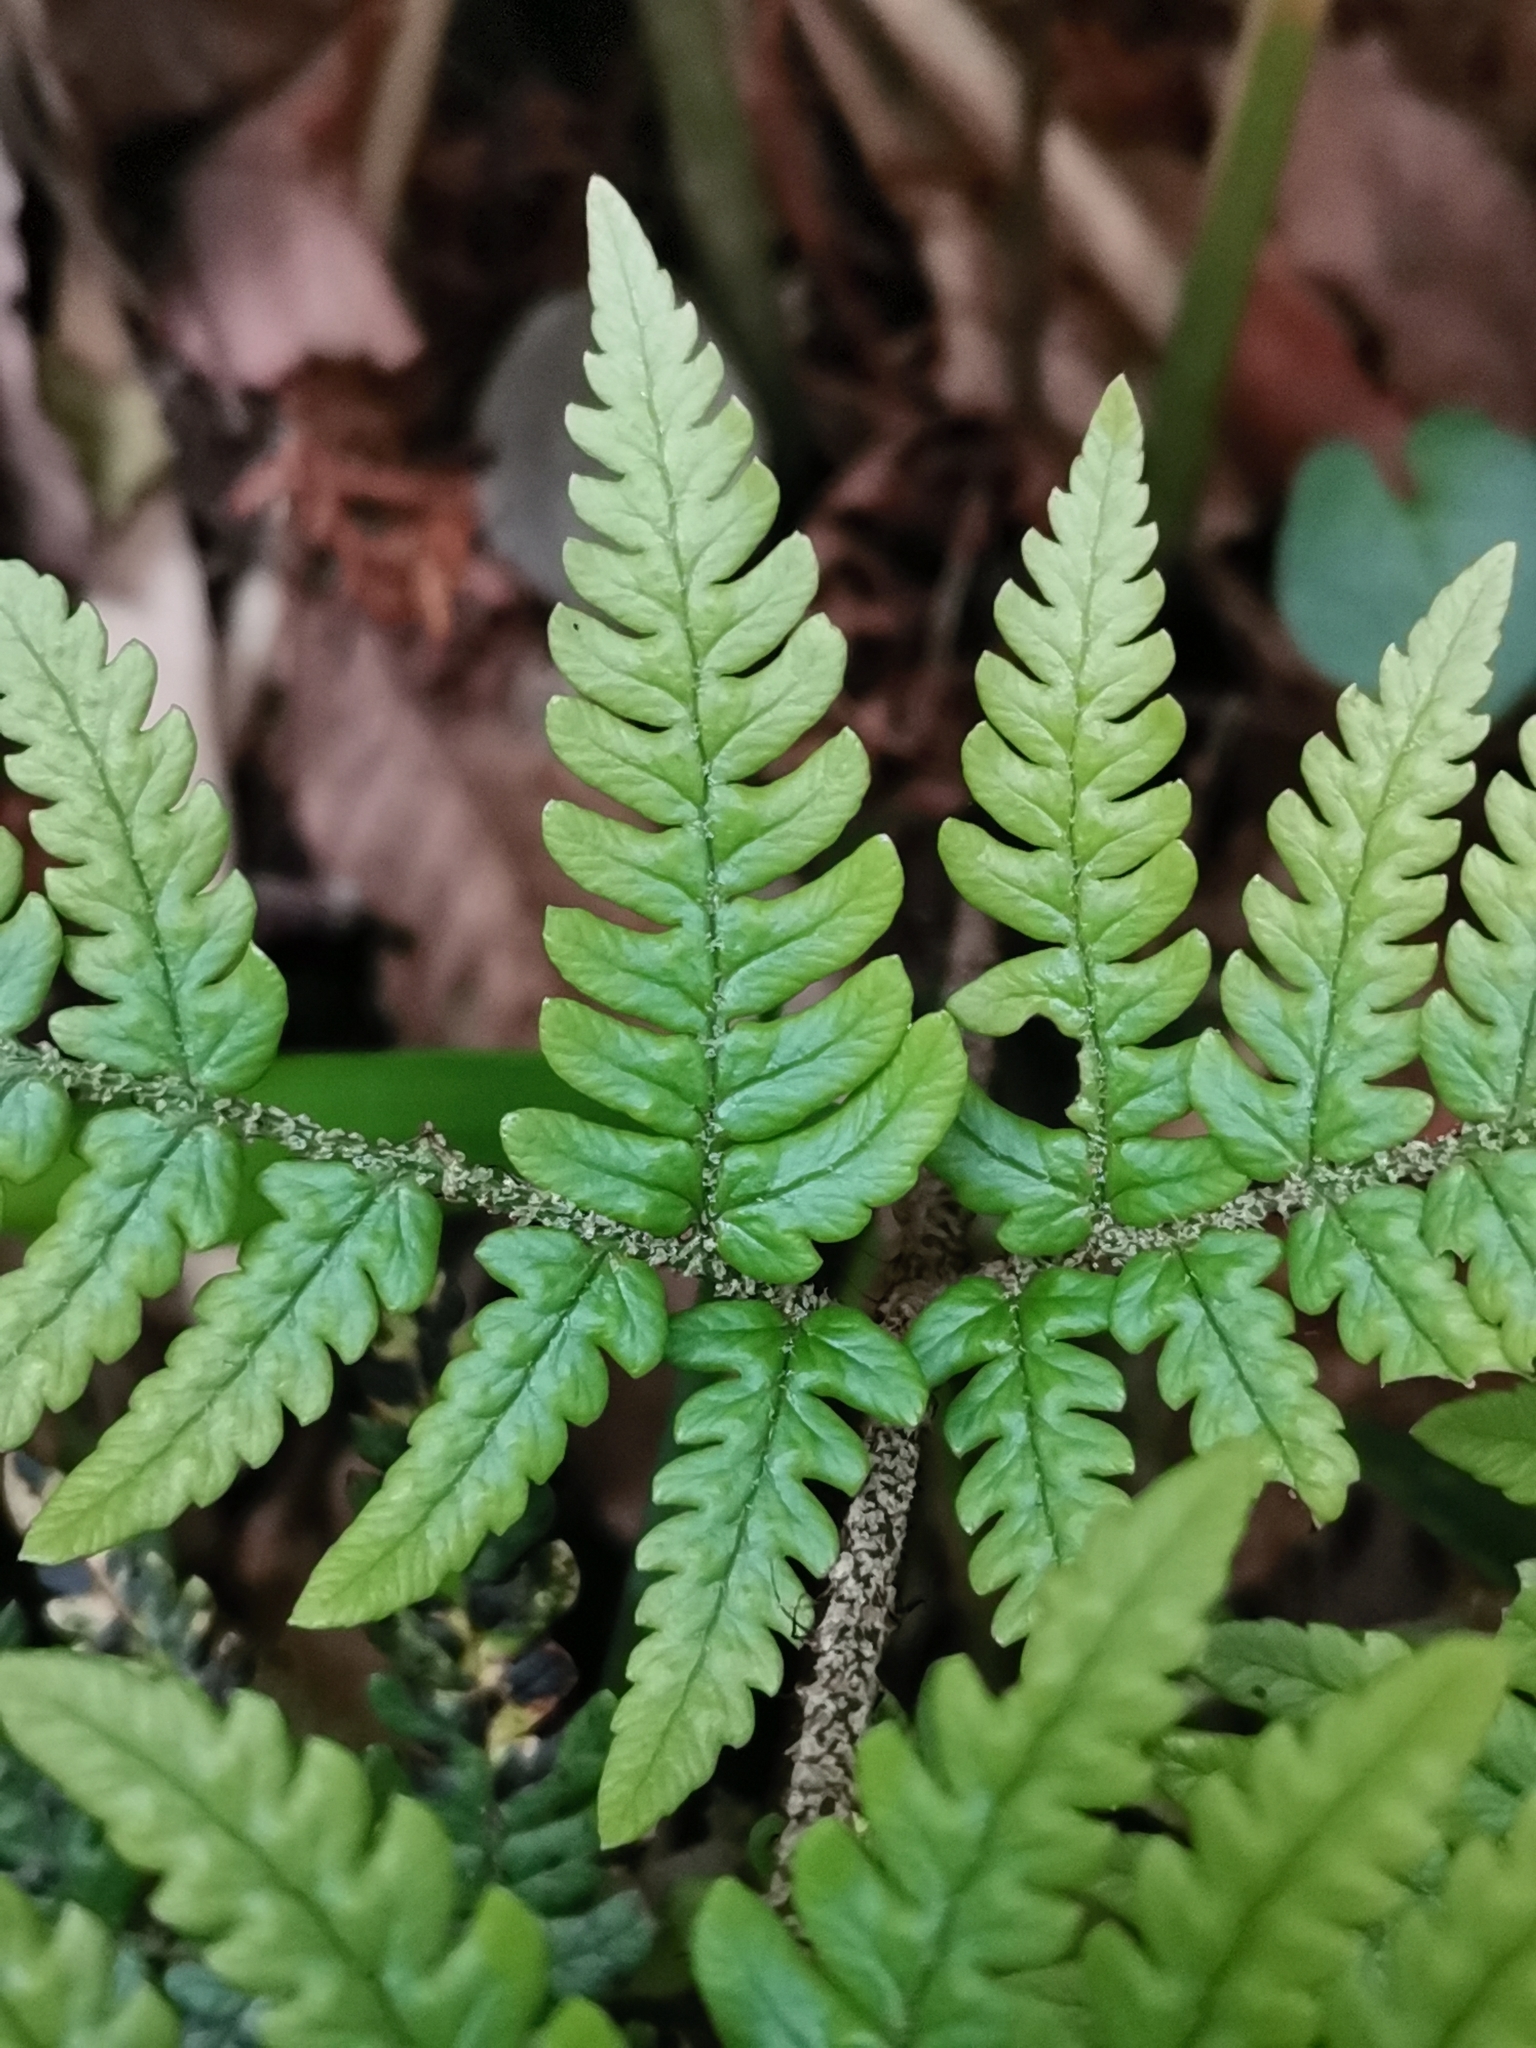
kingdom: Plantae
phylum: Tracheophyta
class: Polypodiopsida
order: Polypodiales
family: Dryopteridaceae
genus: Dryopteris
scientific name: Dryopteris immixta
